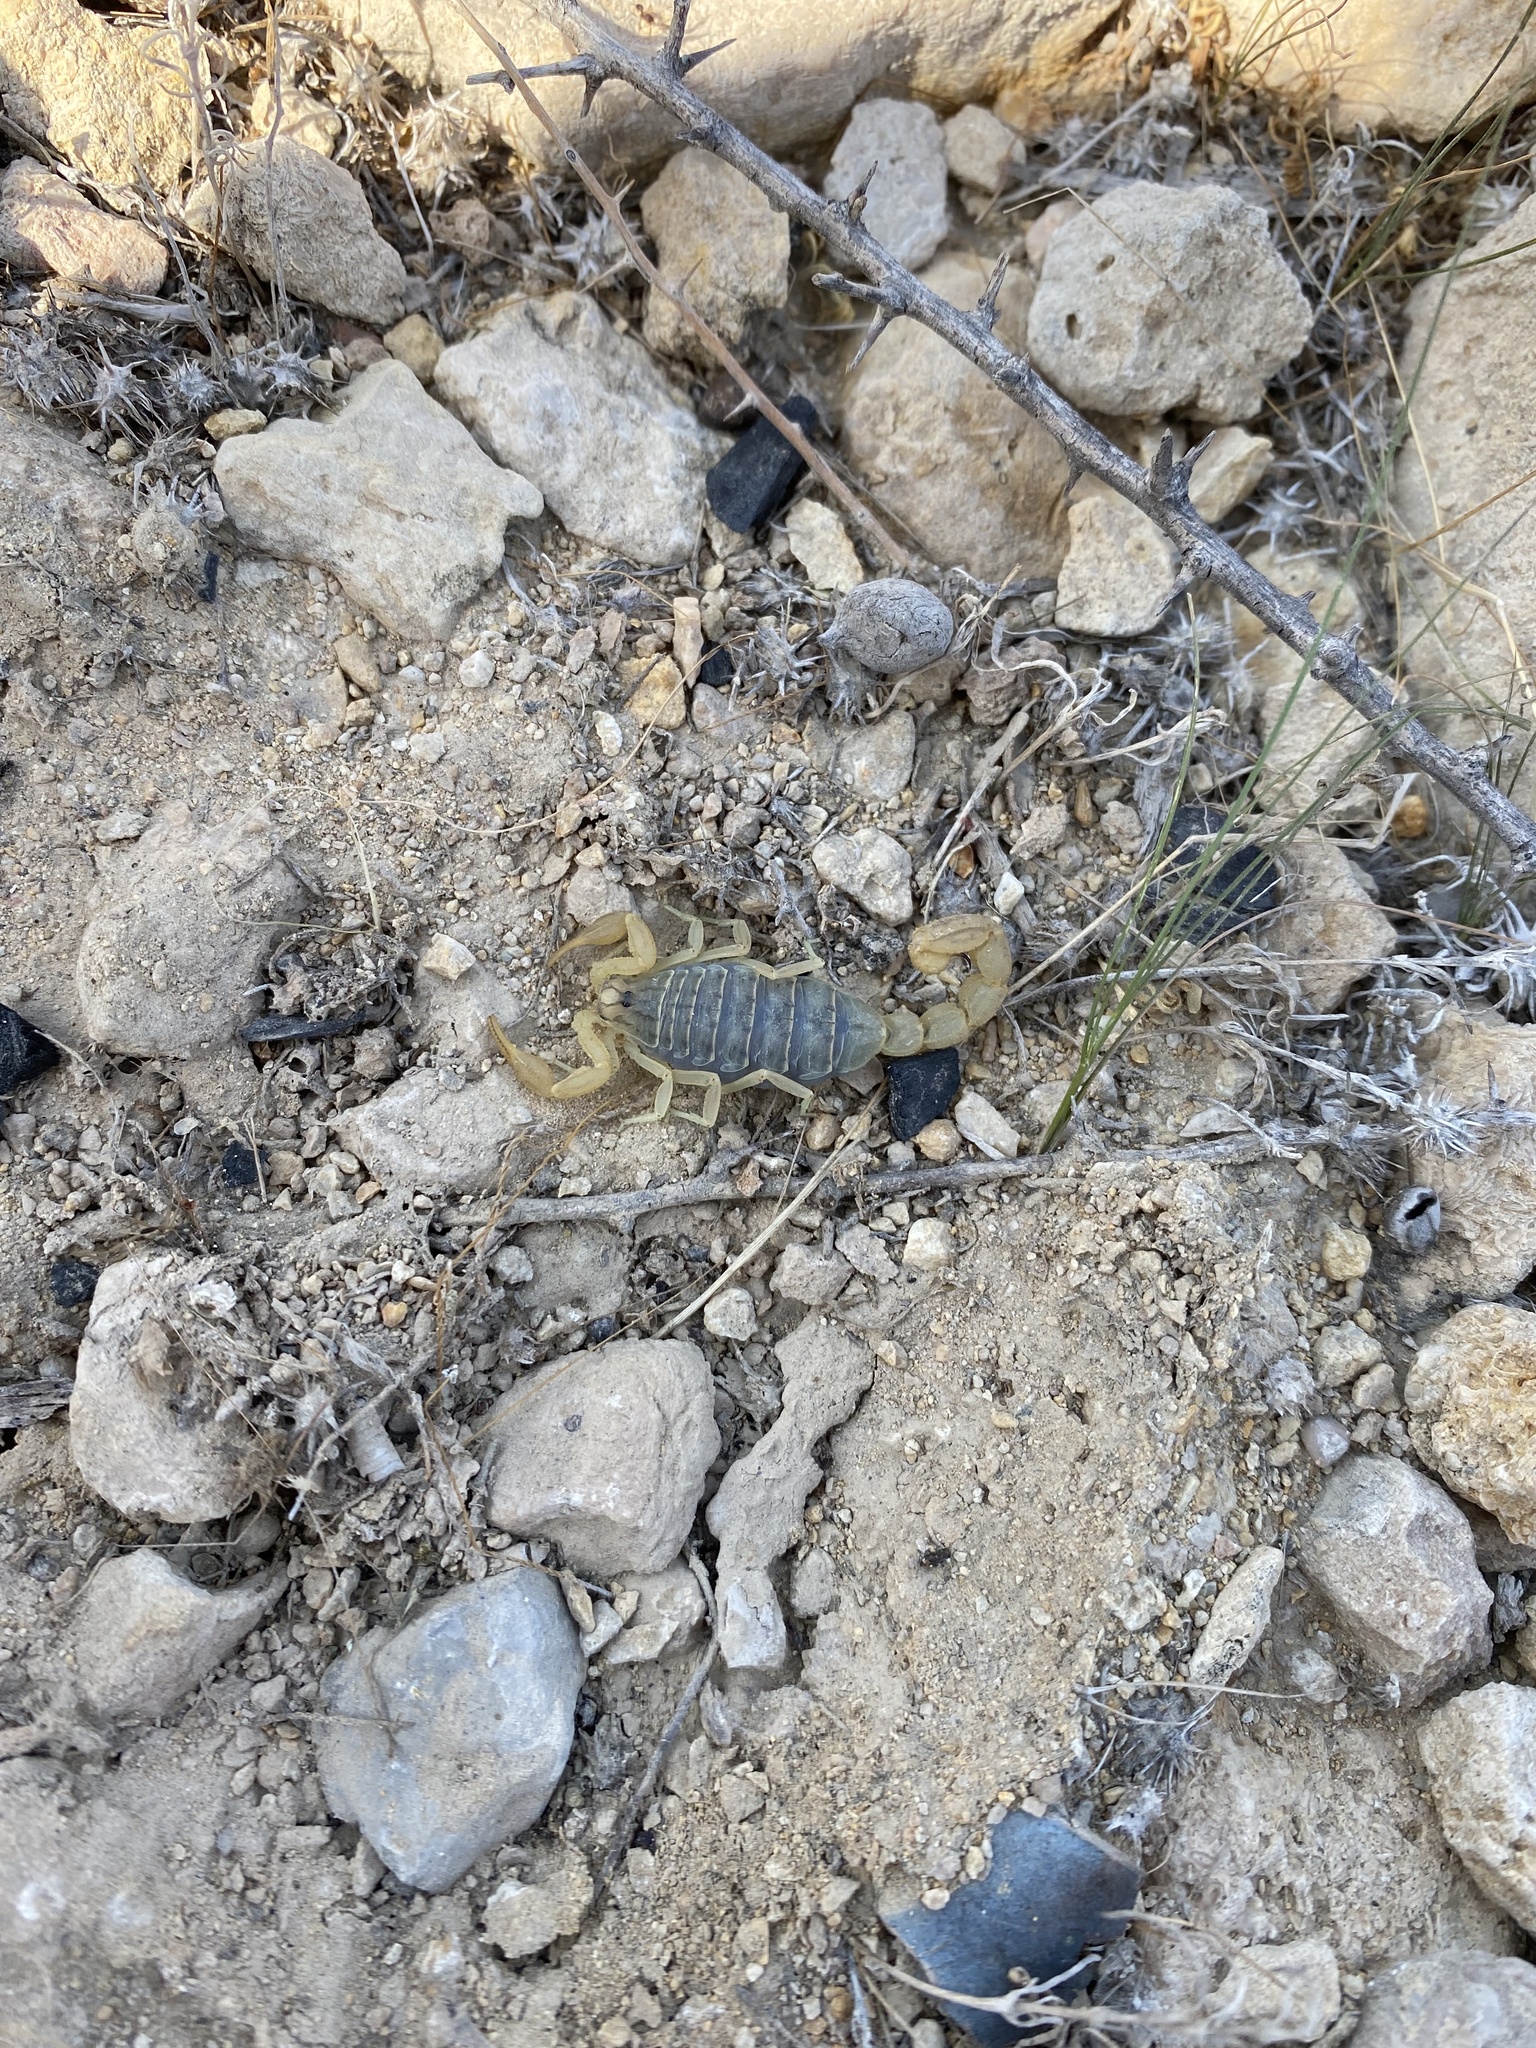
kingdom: Animalia
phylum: Arthropoda
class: Arachnida
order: Scorpiones
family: Buthidae
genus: Mesobuthus
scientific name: Mesobuthus mirshamsii
